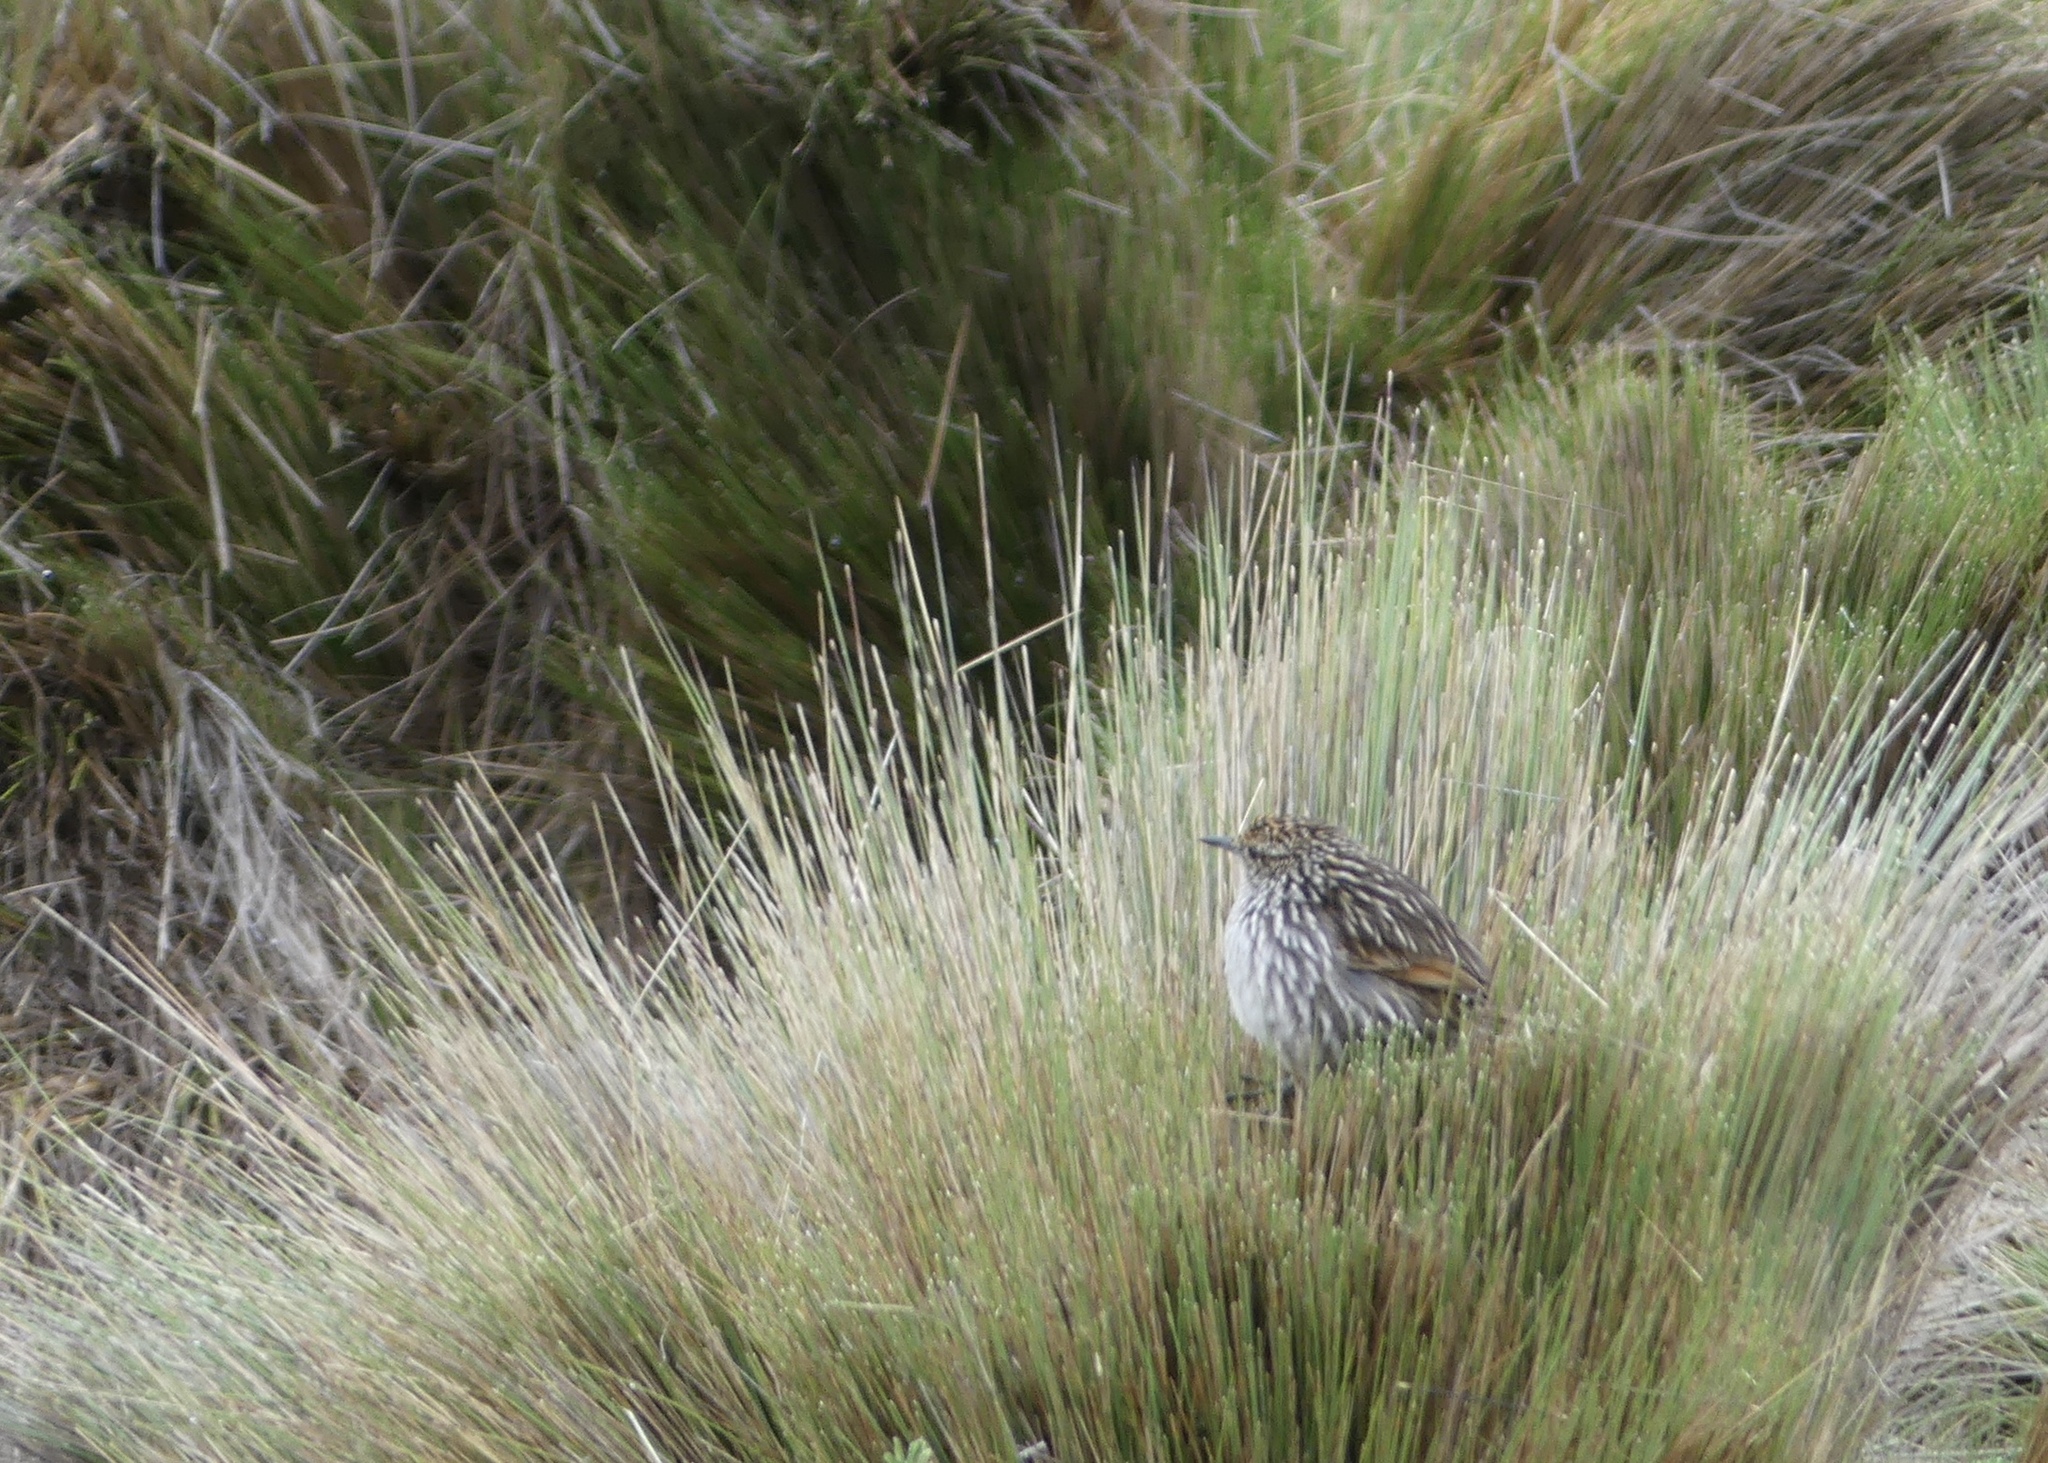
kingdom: Animalia
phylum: Chordata
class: Aves
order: Passeriformes
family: Furnariidae
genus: Asthenes
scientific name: Asthenes flammulata
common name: Many-striped canastero
